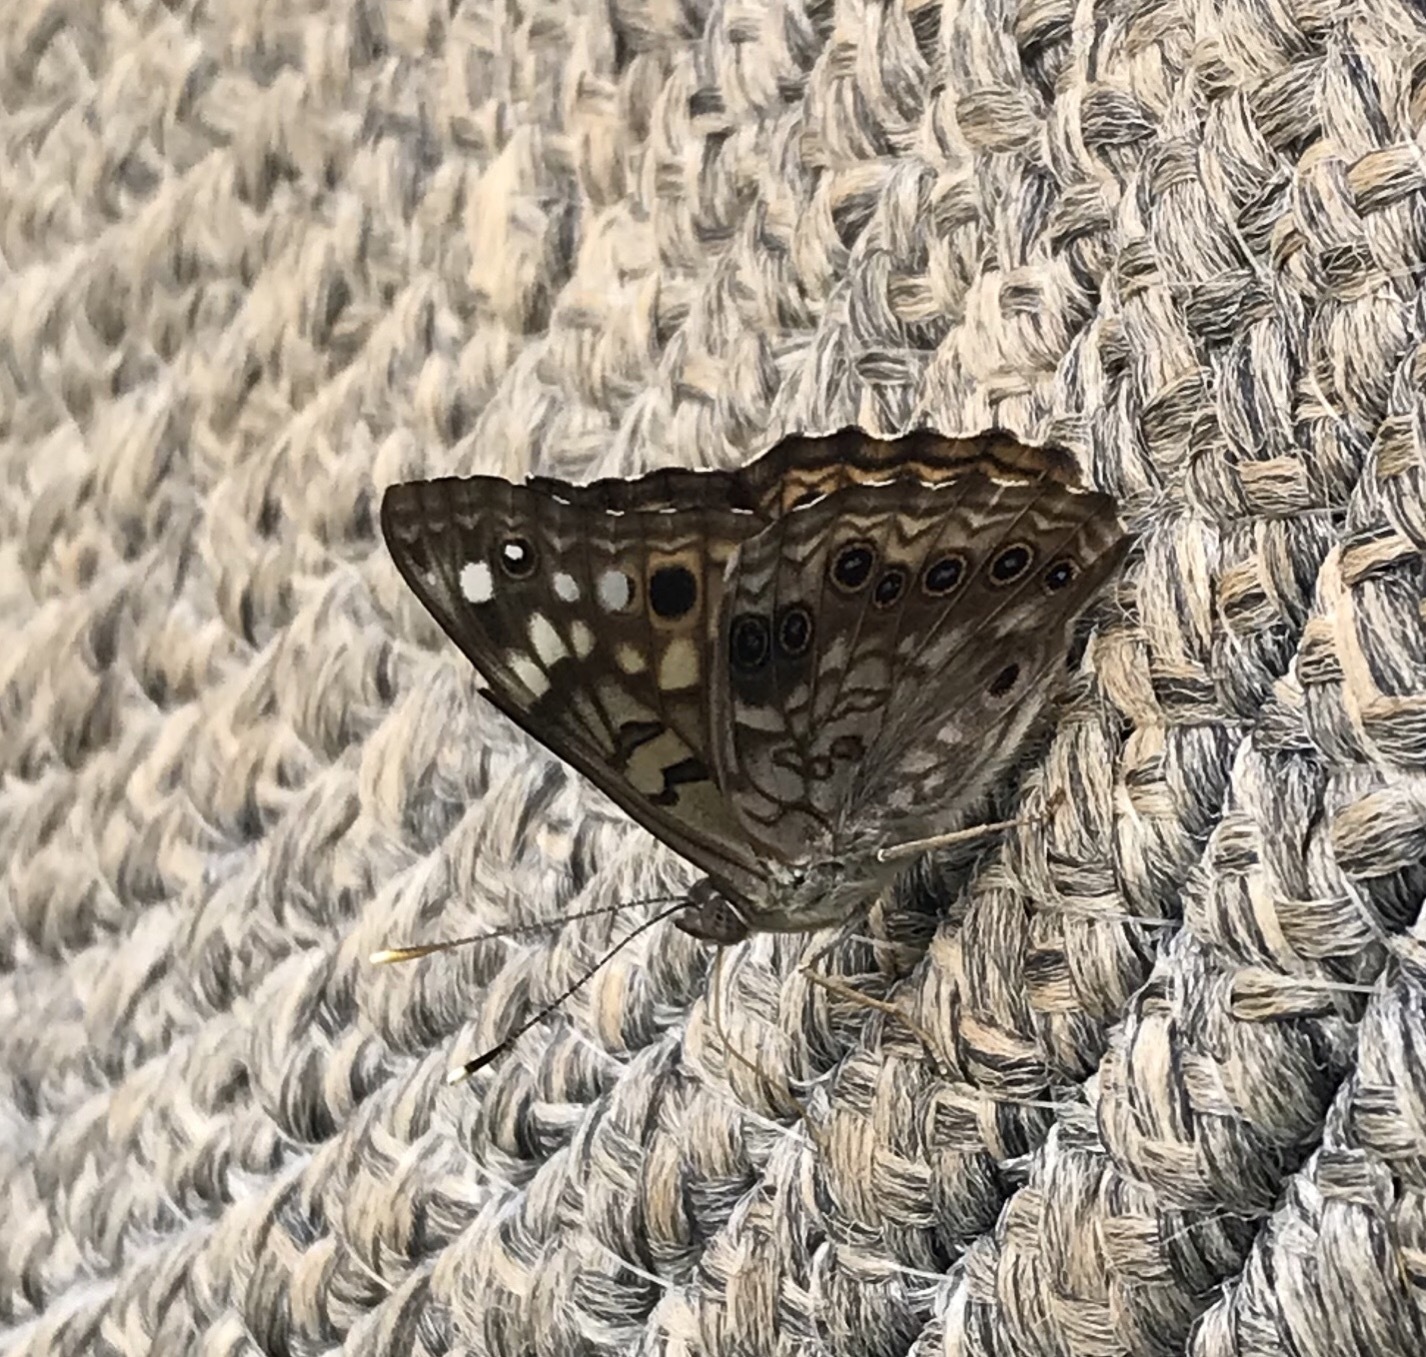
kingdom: Animalia
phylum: Arthropoda
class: Insecta
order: Lepidoptera
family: Nymphalidae
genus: Asterocampa
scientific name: Asterocampa celtis
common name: Hackberry emperor
